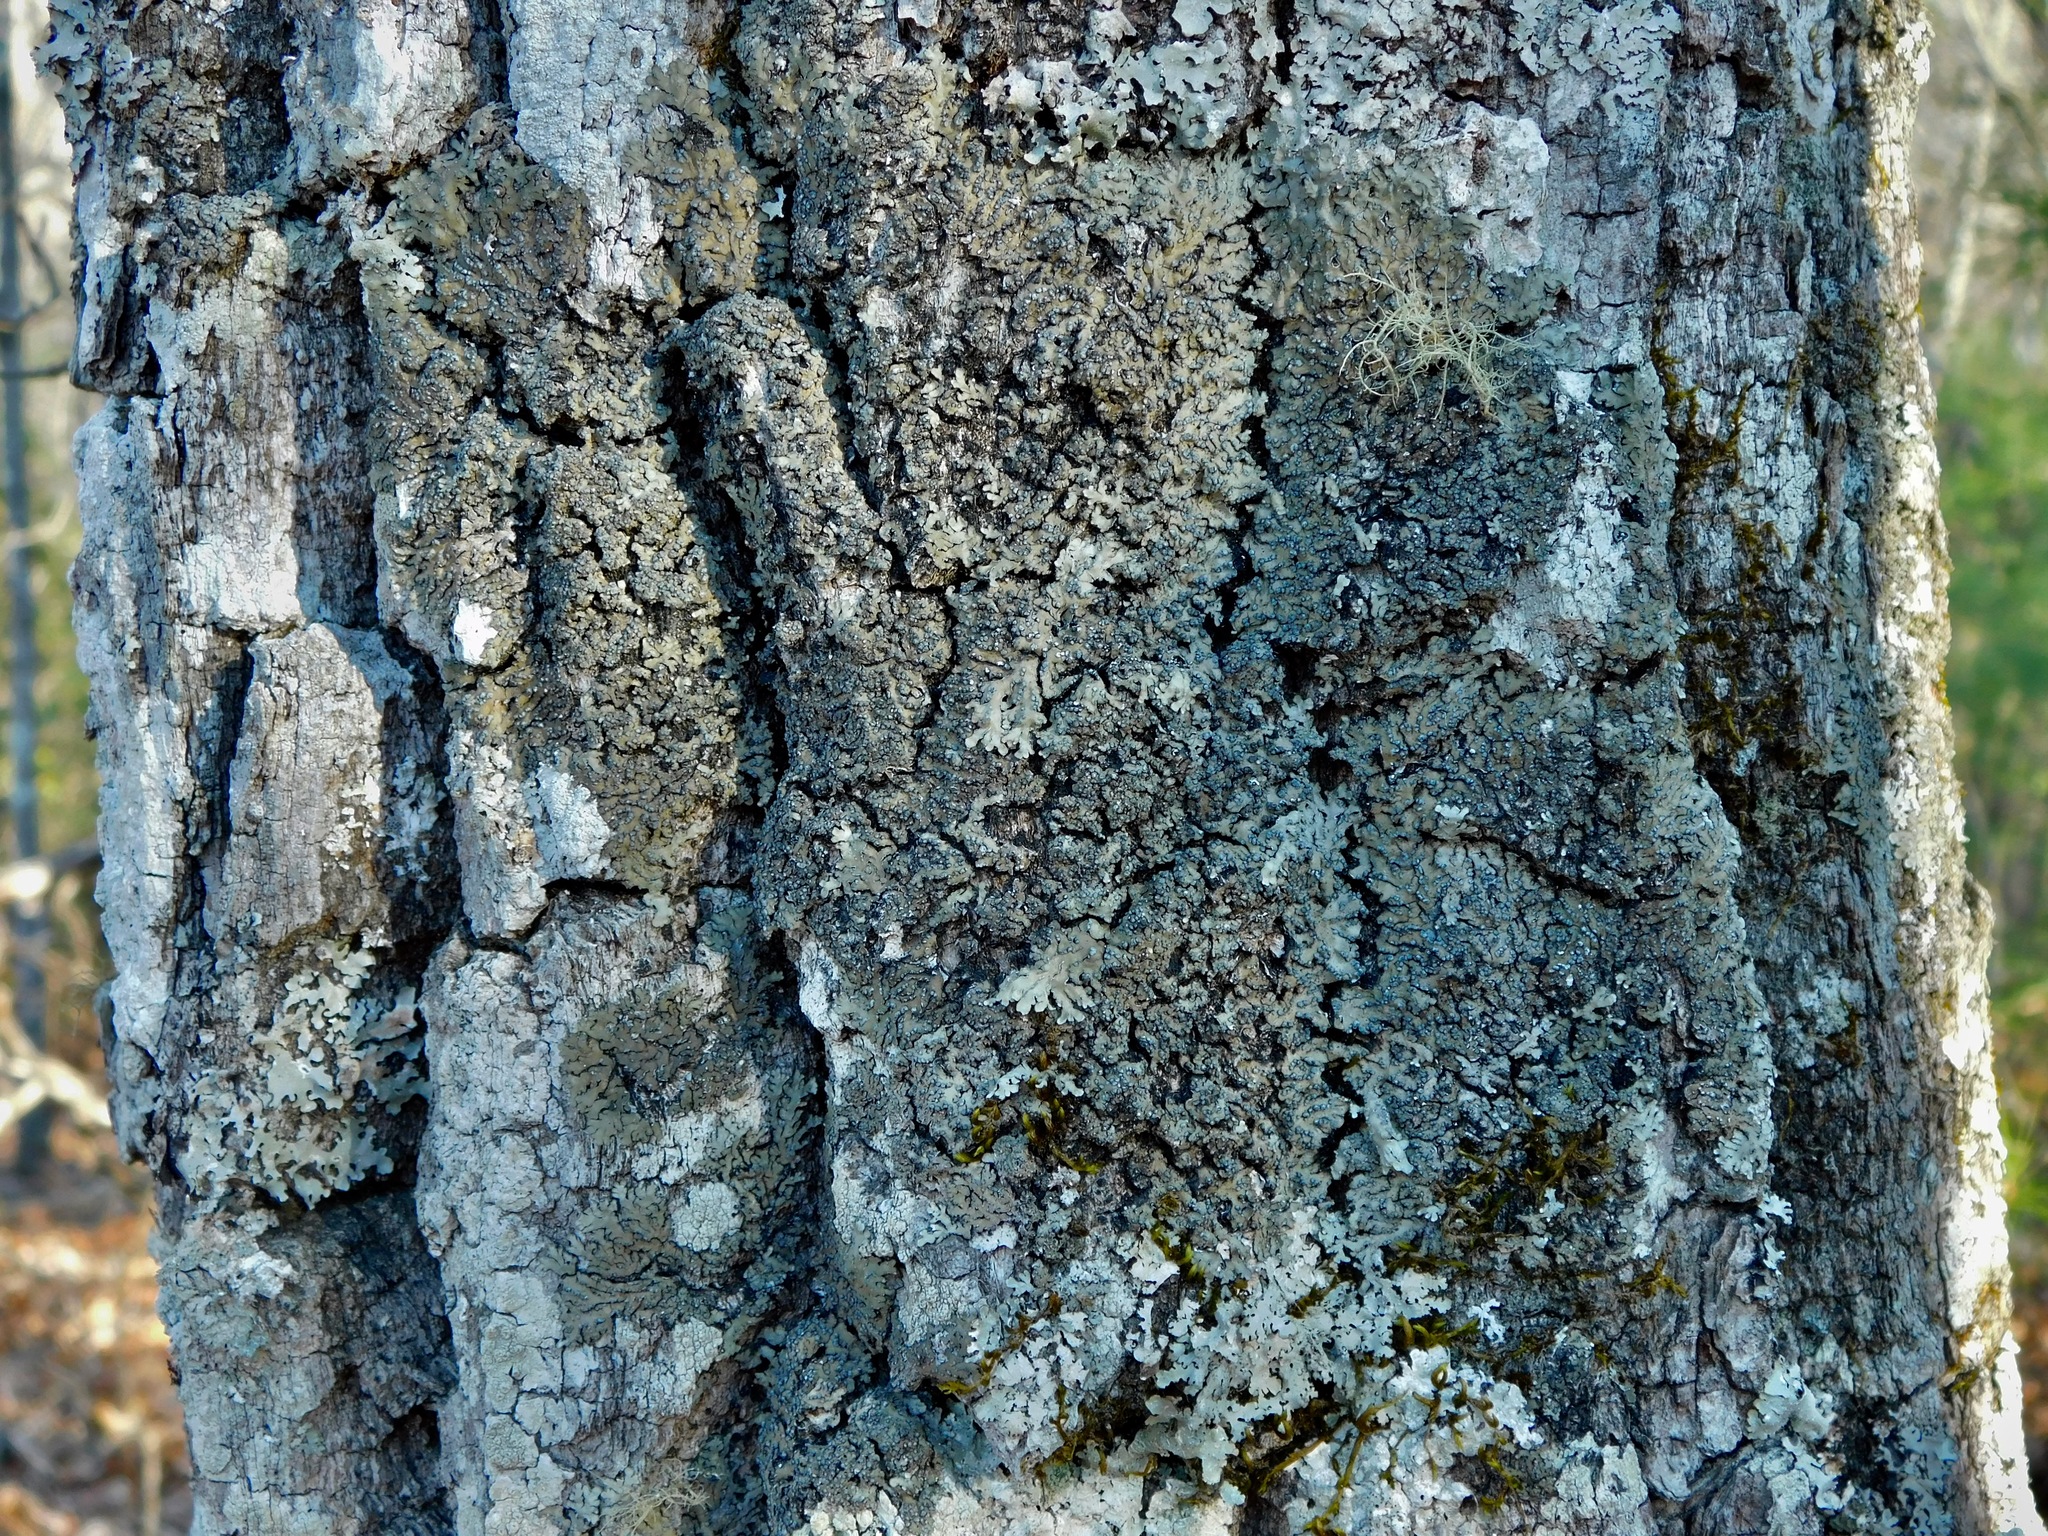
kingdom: Fungi
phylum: Ascomycota
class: Lecanoromycetes
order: Caliciales
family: Physciaceae
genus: Phaeophyscia
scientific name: Phaeophyscia adiastola
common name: Powder-tipped shadow lichen
